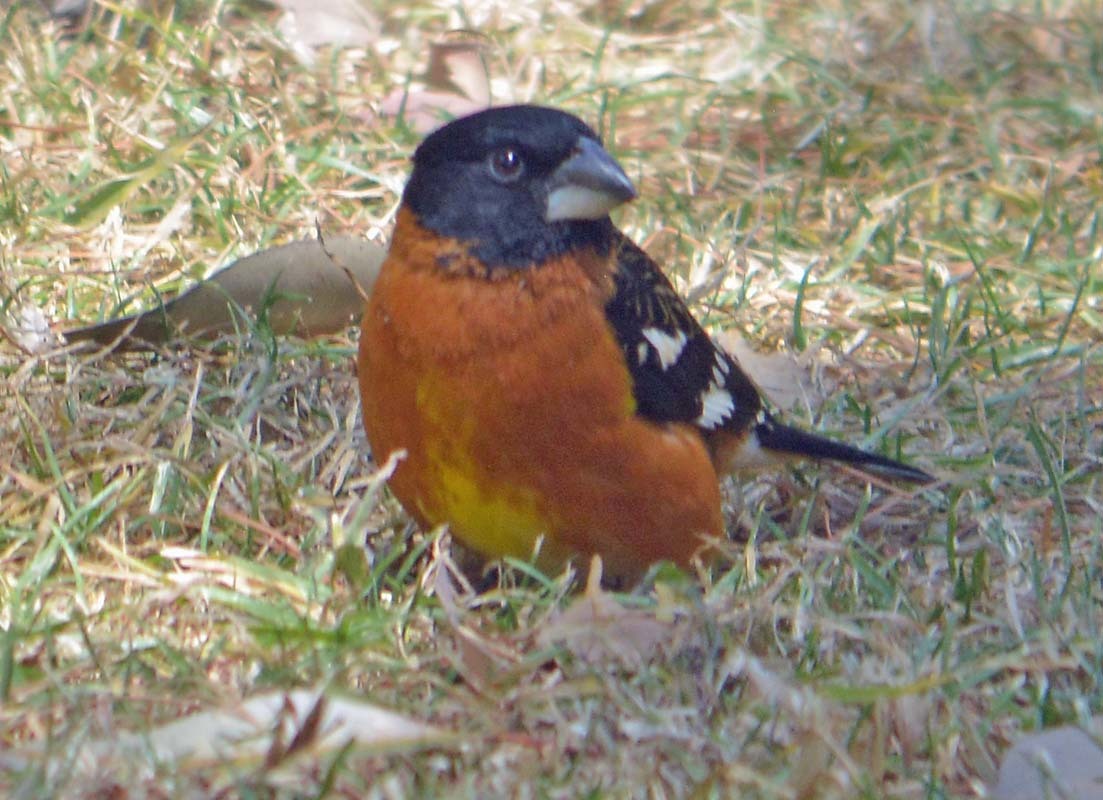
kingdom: Animalia
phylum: Chordata
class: Aves
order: Passeriformes
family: Cardinalidae
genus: Pheucticus
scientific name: Pheucticus melanocephalus
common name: Black-headed grosbeak
